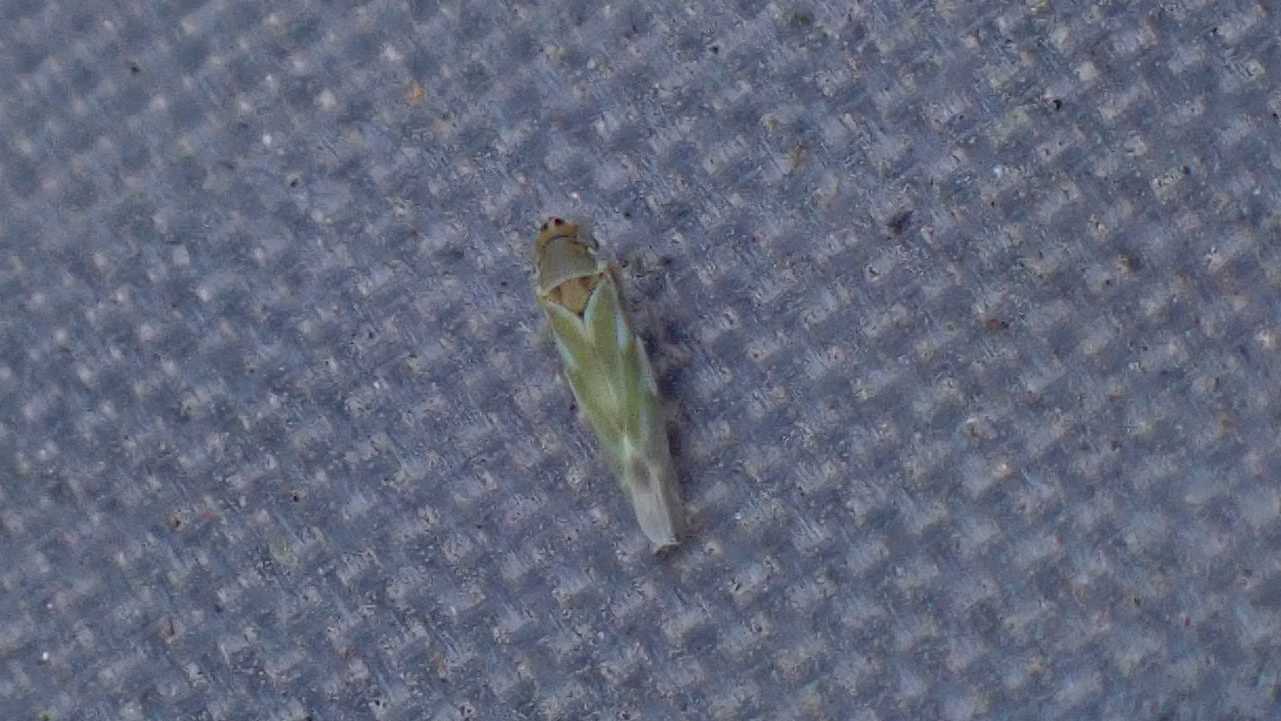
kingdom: Animalia
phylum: Arthropoda
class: Insecta
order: Hemiptera
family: Cicadellidae
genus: Frutioidia
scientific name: Frutioidia bisignata
